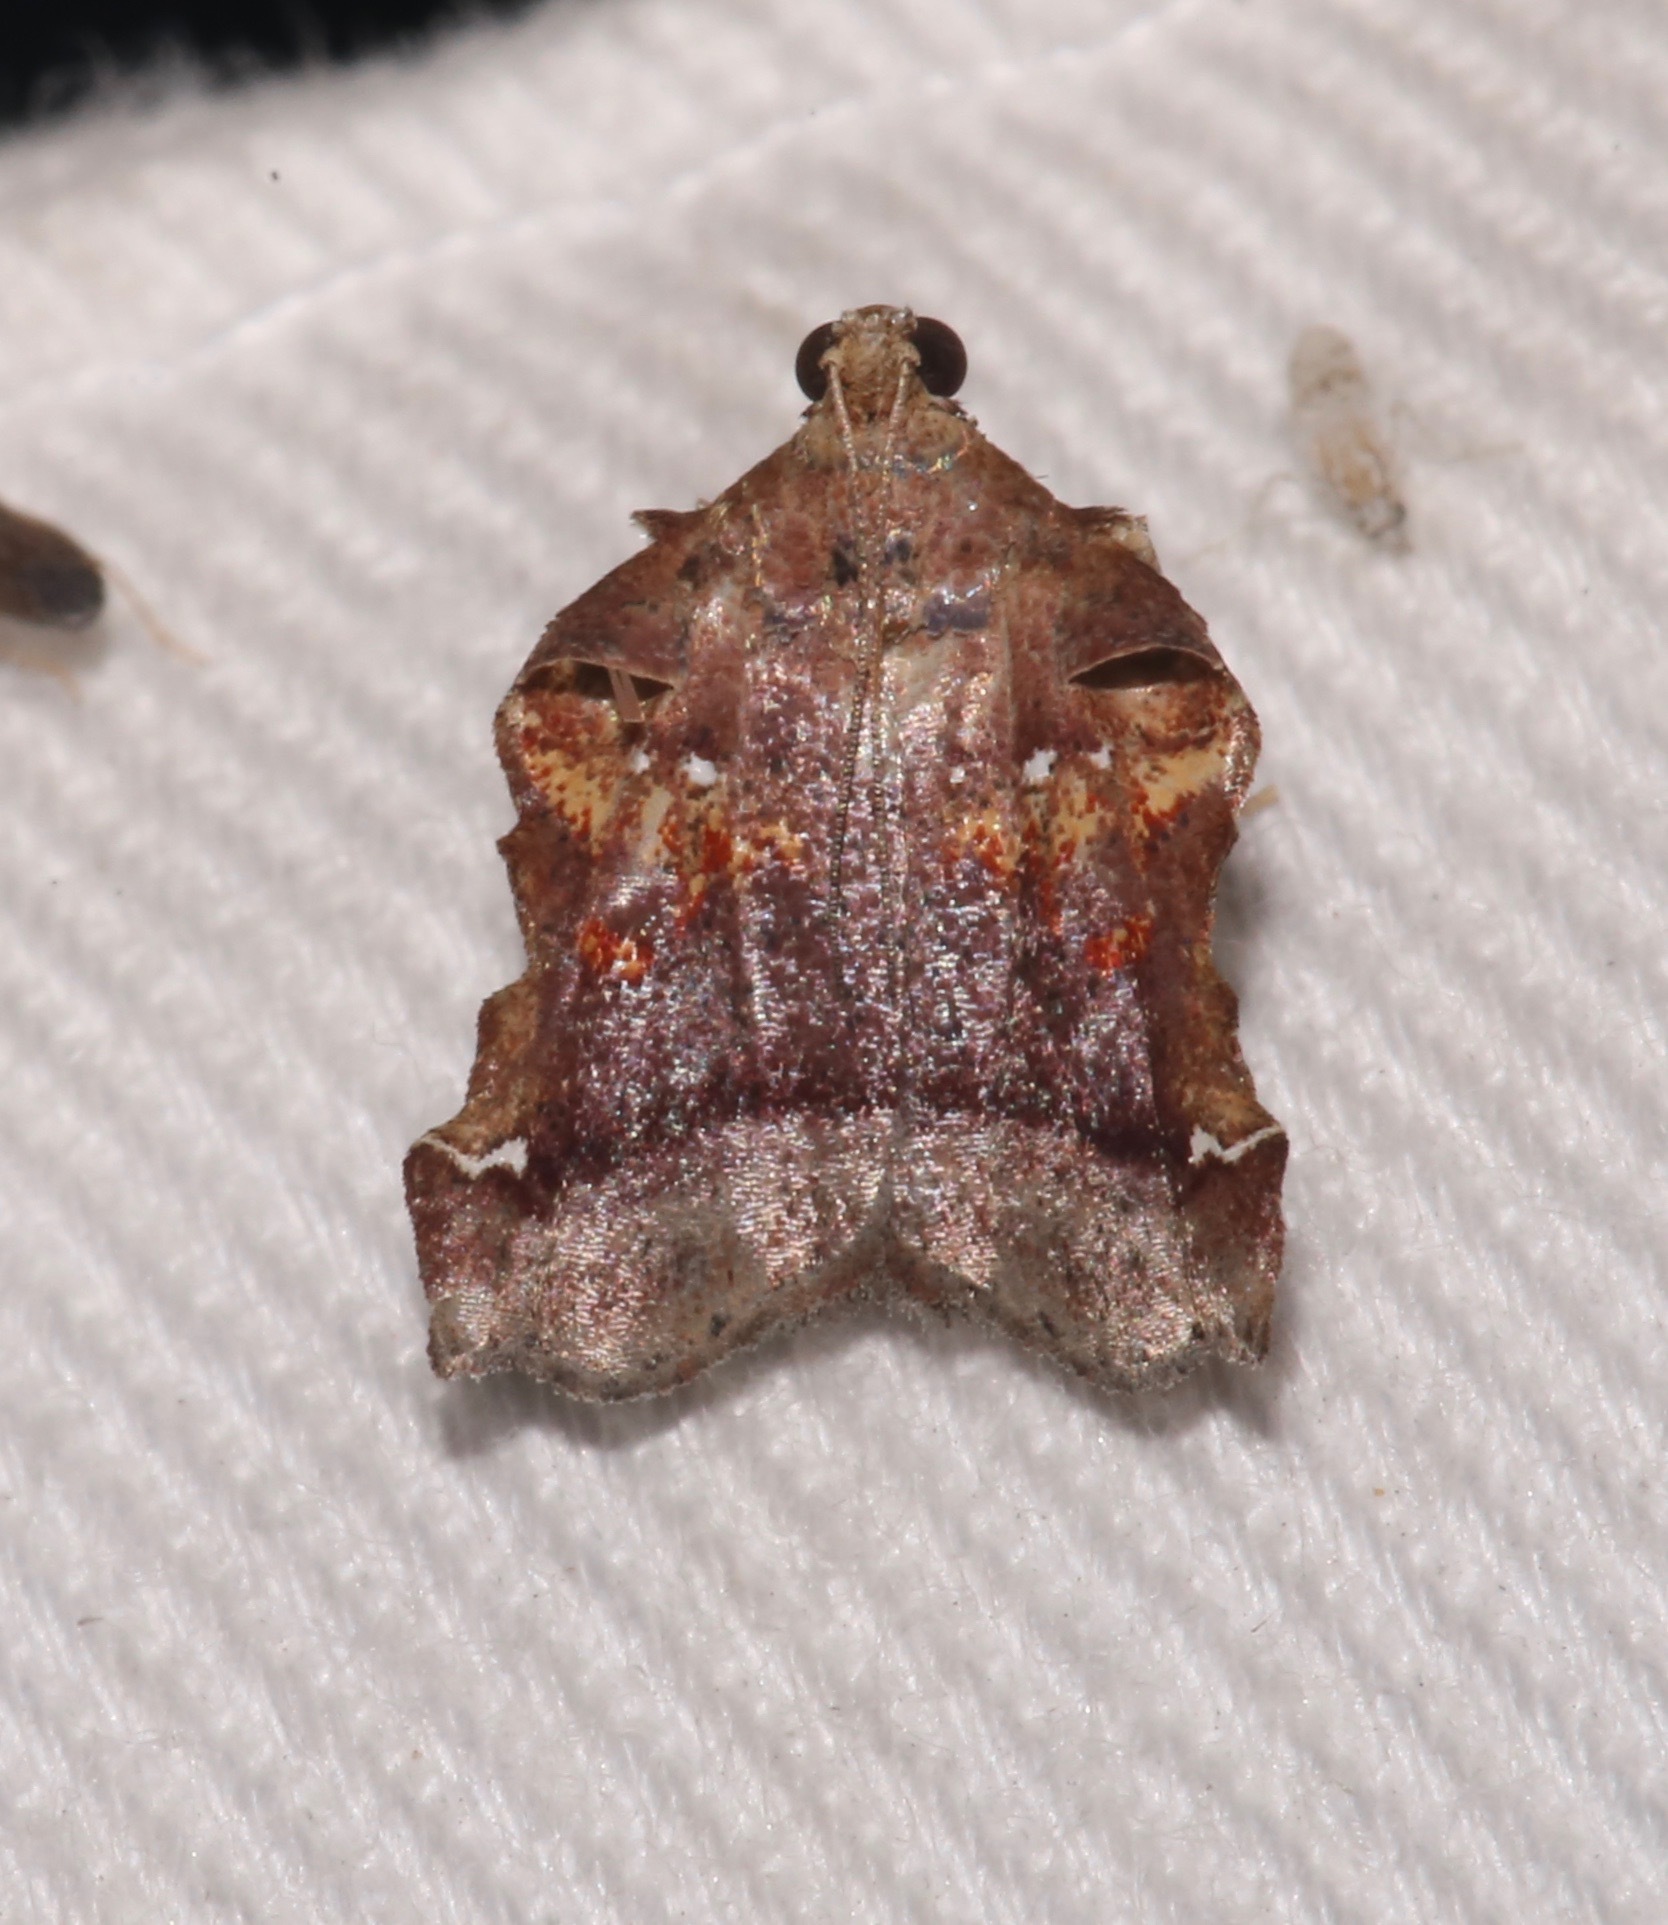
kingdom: Animalia
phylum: Arthropoda
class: Insecta
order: Lepidoptera
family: Pyralidae
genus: Clydonopteron
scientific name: Clydonopteron sacculana
